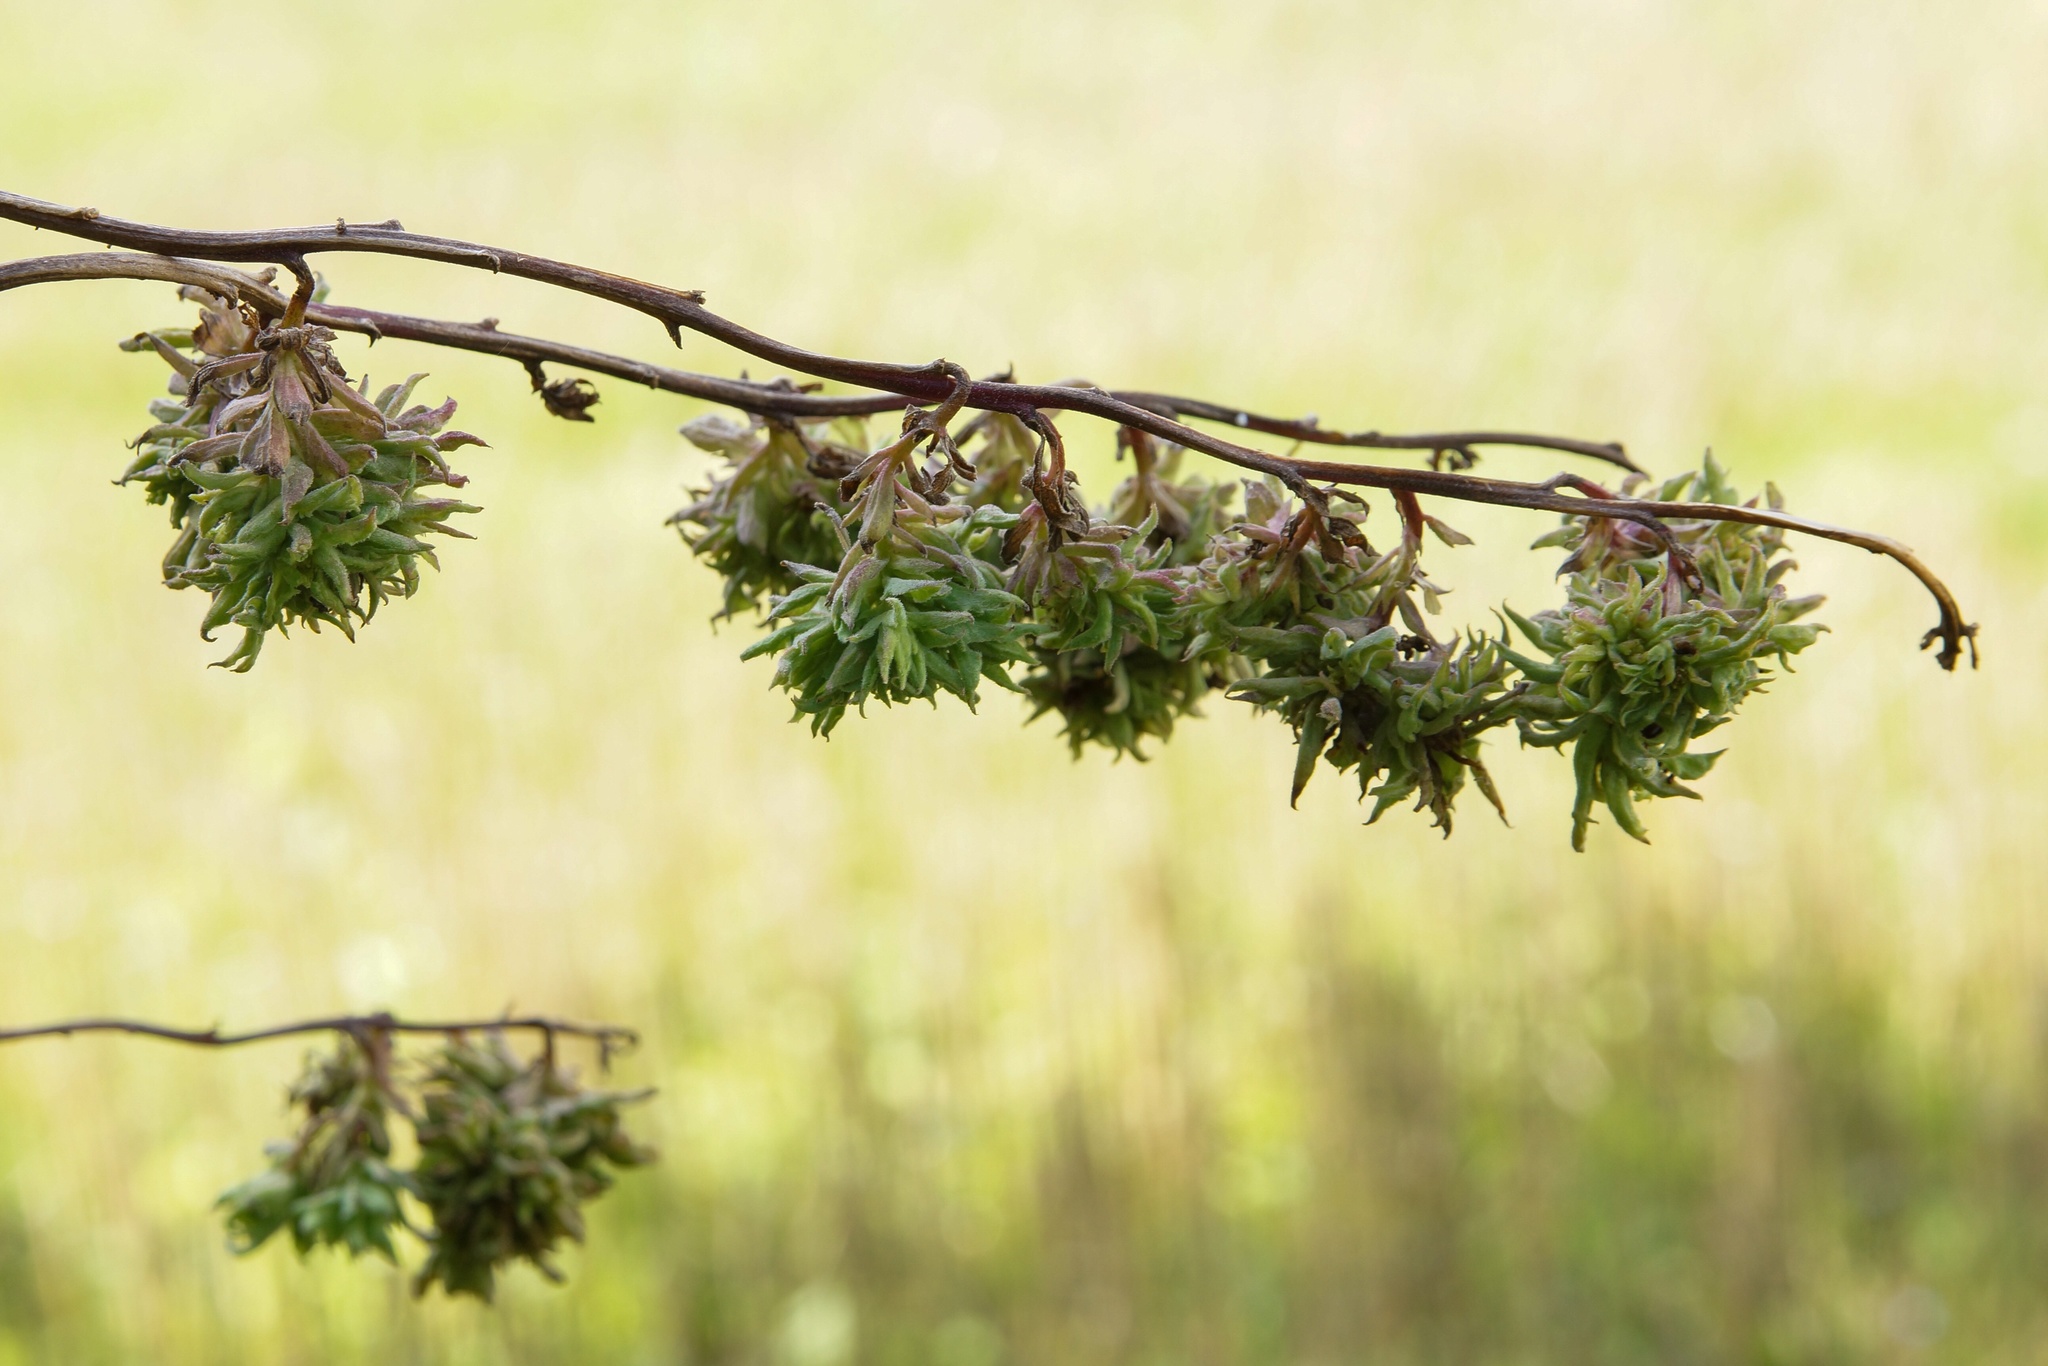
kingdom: Animalia
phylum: Arthropoda
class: Arachnida
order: Trombidiformes
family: Eriophyidae
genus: Aculus
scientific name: Aculus schmardae
